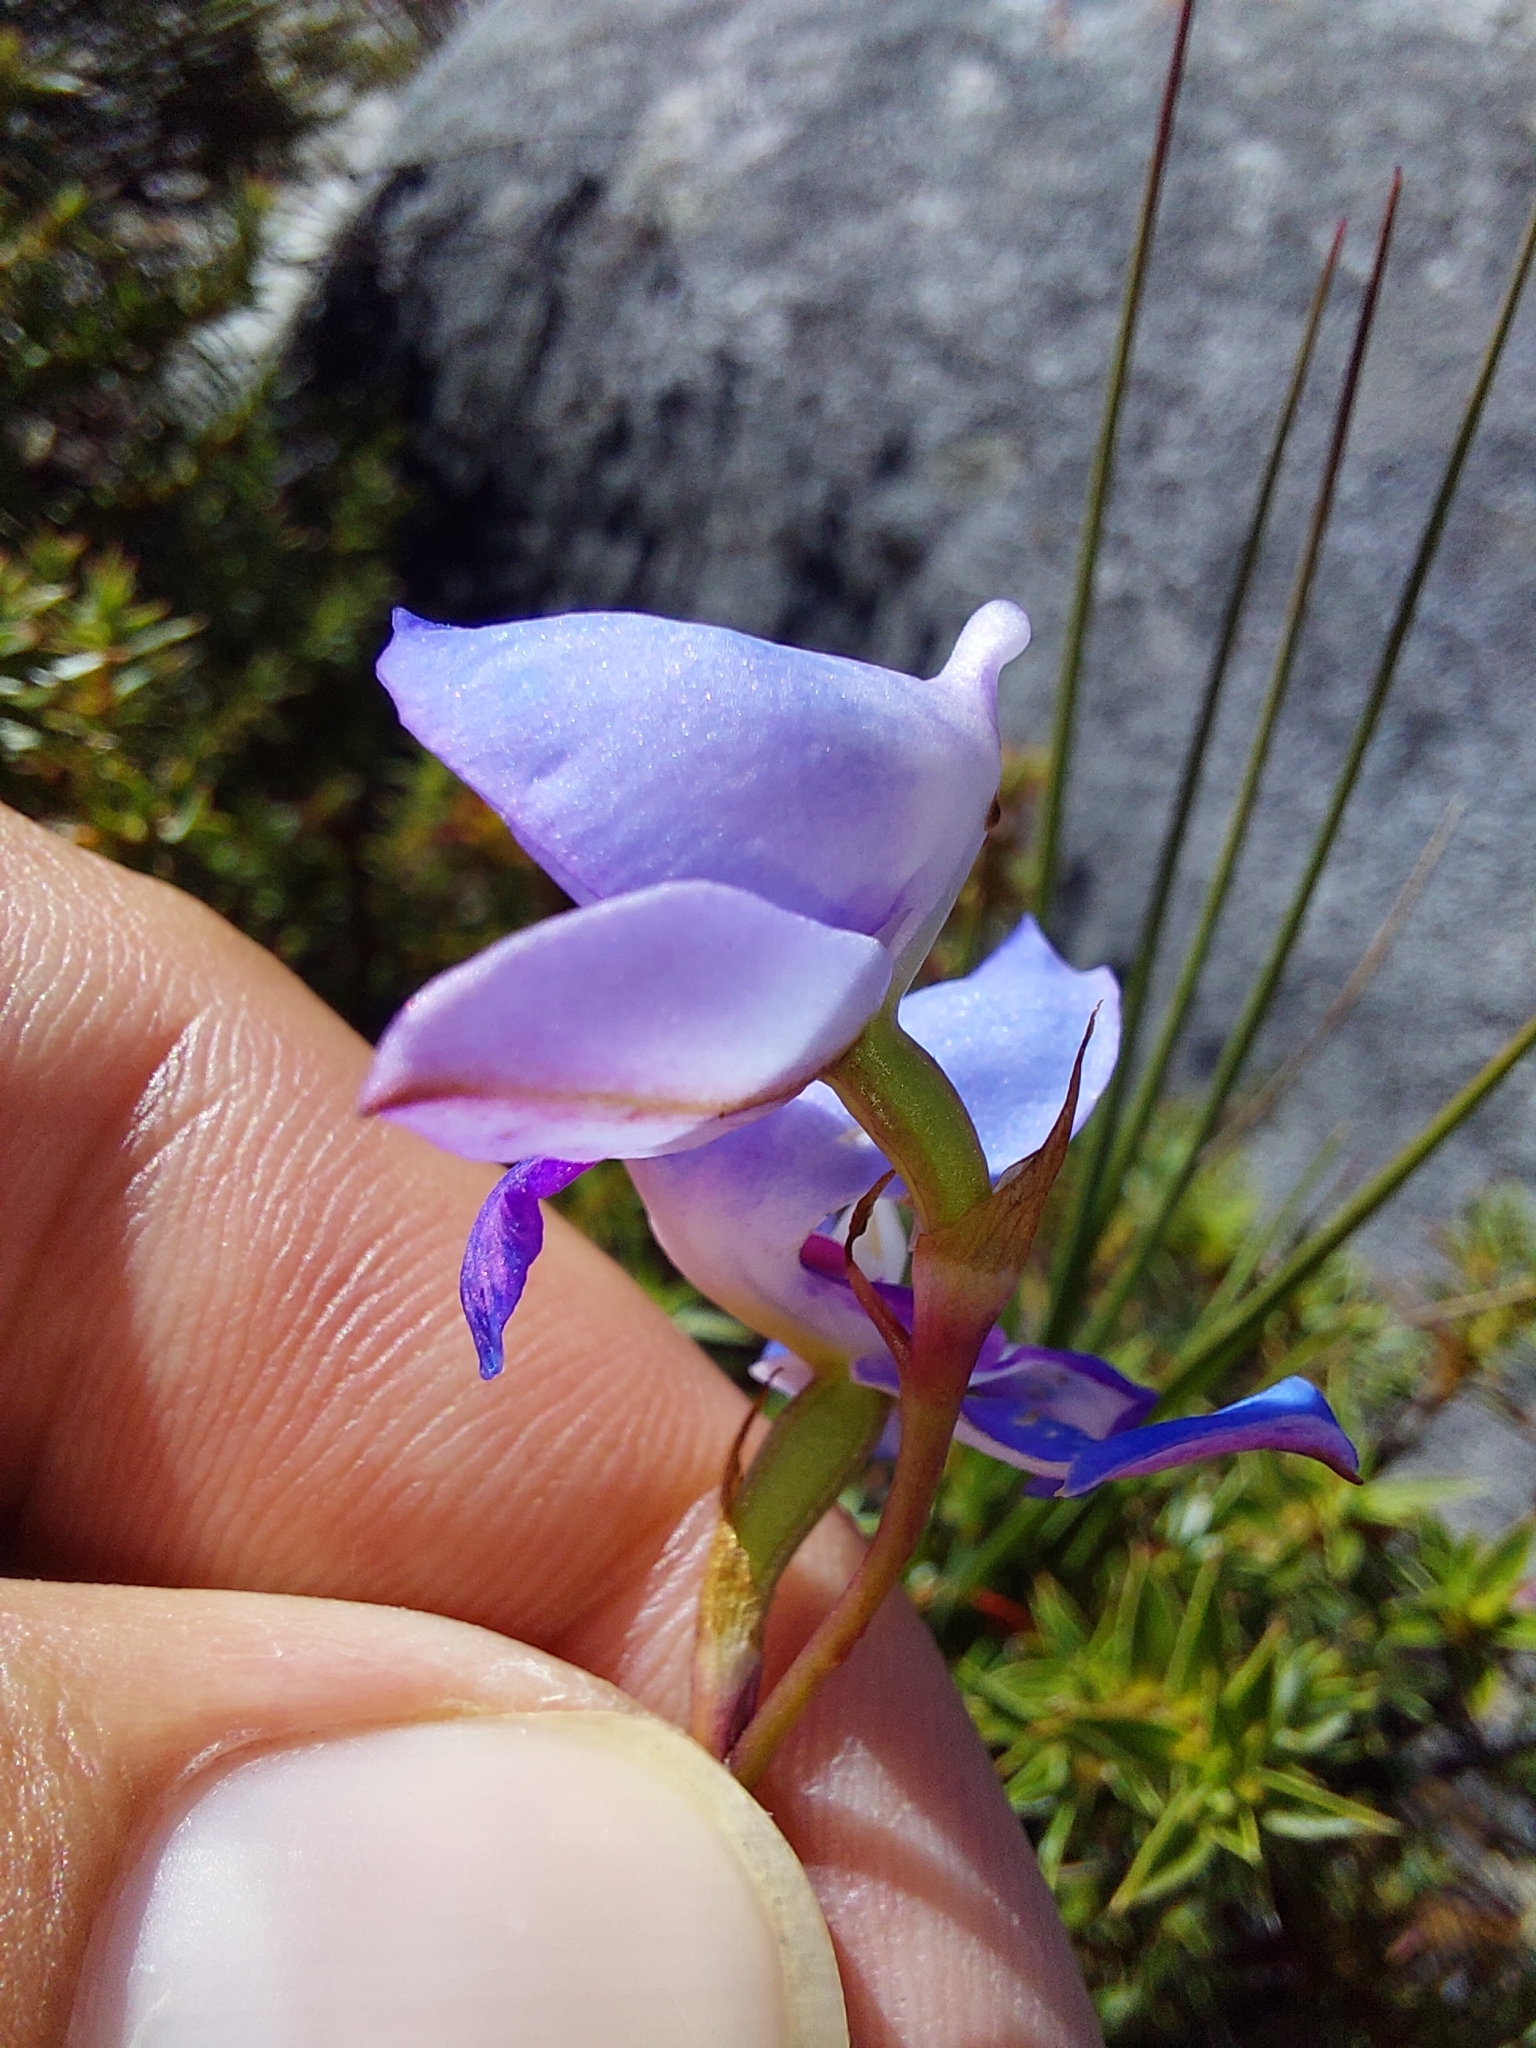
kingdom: Plantae
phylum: Tracheophyta
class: Liliopsida
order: Asparagales
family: Orchidaceae
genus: Disa
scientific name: Disa graminifolia
